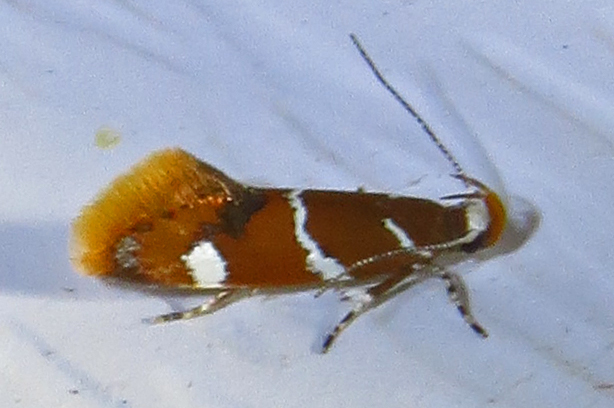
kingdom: Animalia
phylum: Arthropoda
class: Insecta
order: Lepidoptera
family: Oecophoridae
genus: Promalactis
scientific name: Promalactis suzukiella
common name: Moth
